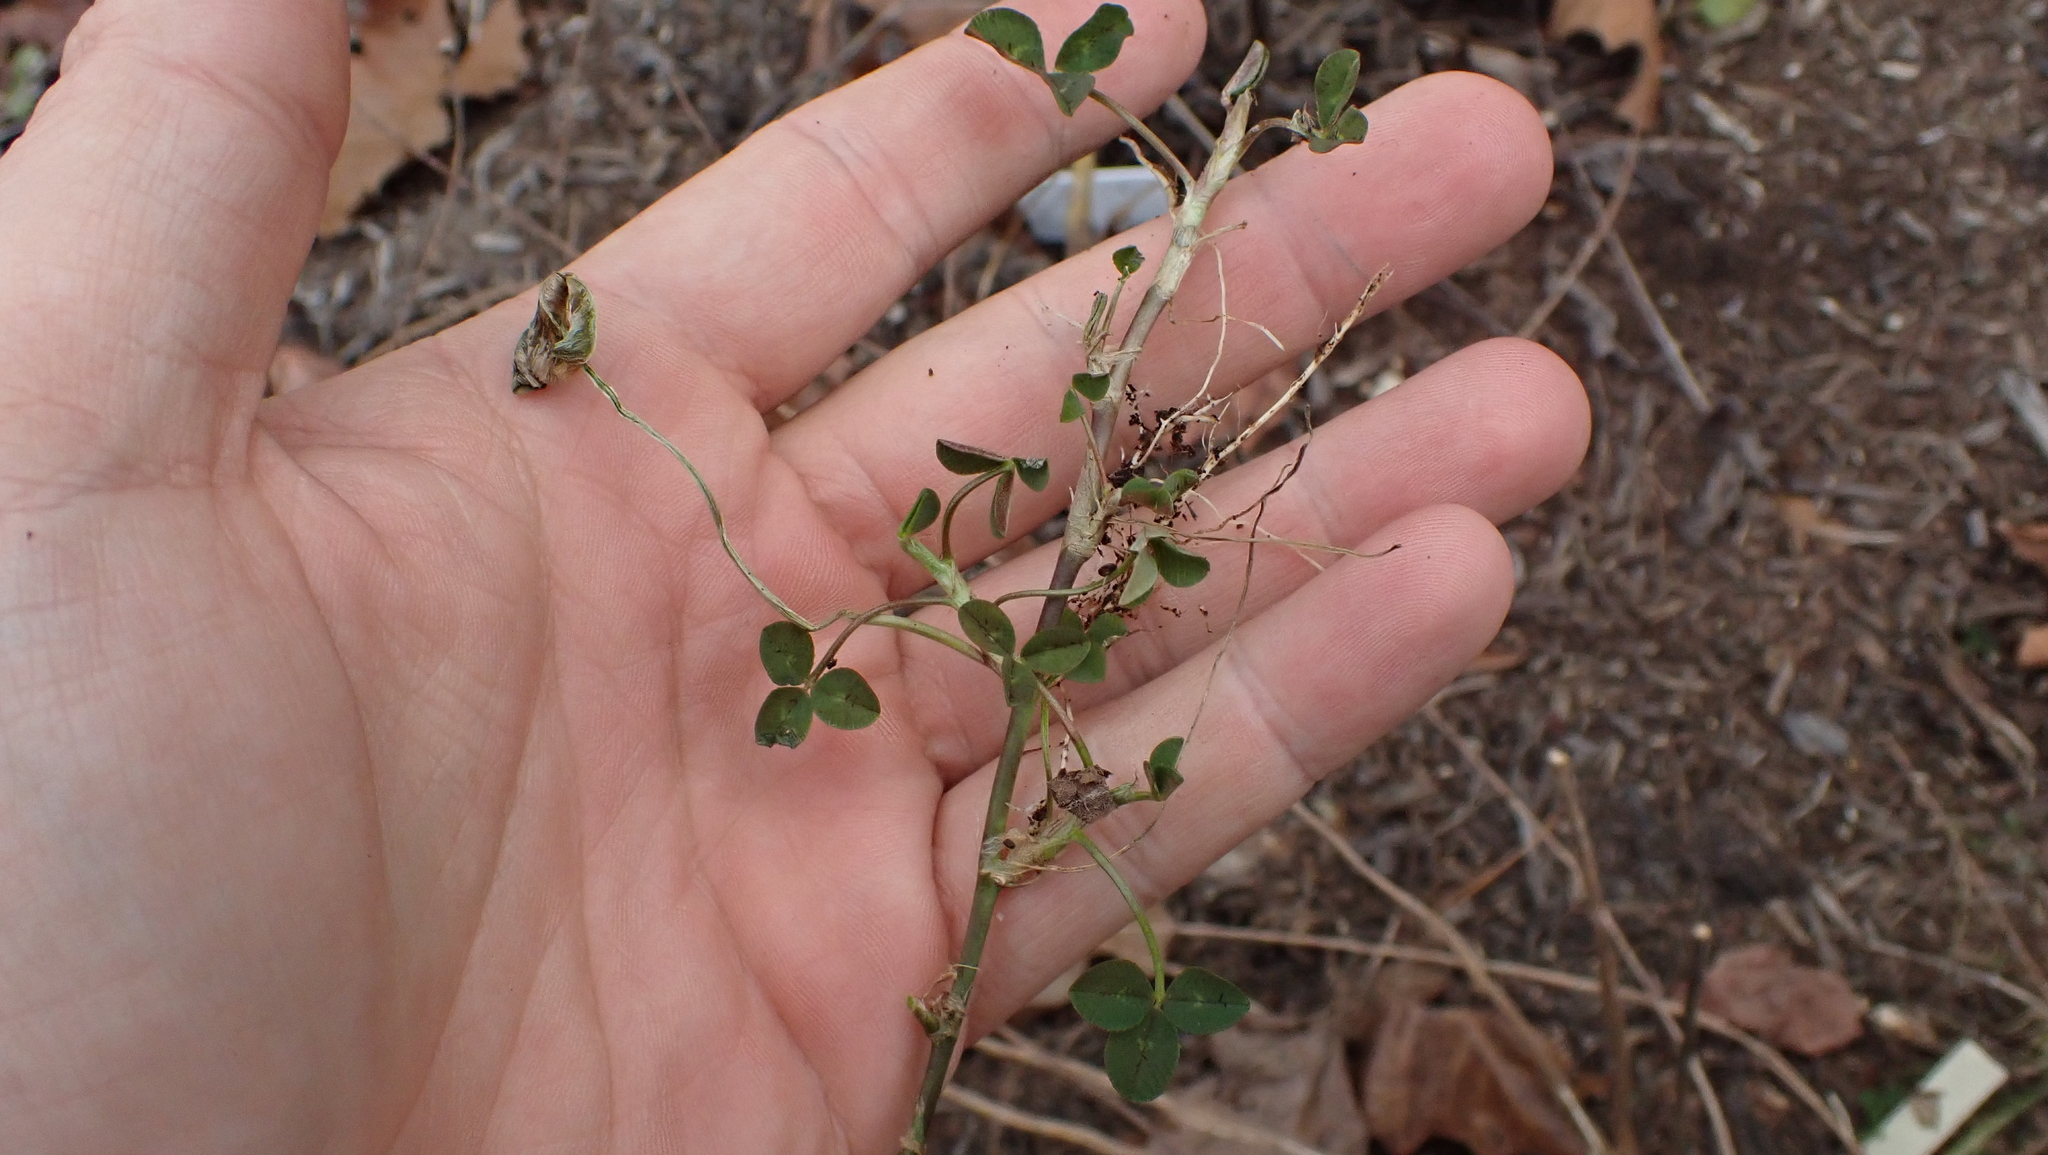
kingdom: Plantae
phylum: Tracheophyta
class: Magnoliopsida
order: Fabales
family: Fabaceae
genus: Trifolium
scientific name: Trifolium repens
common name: White clover
